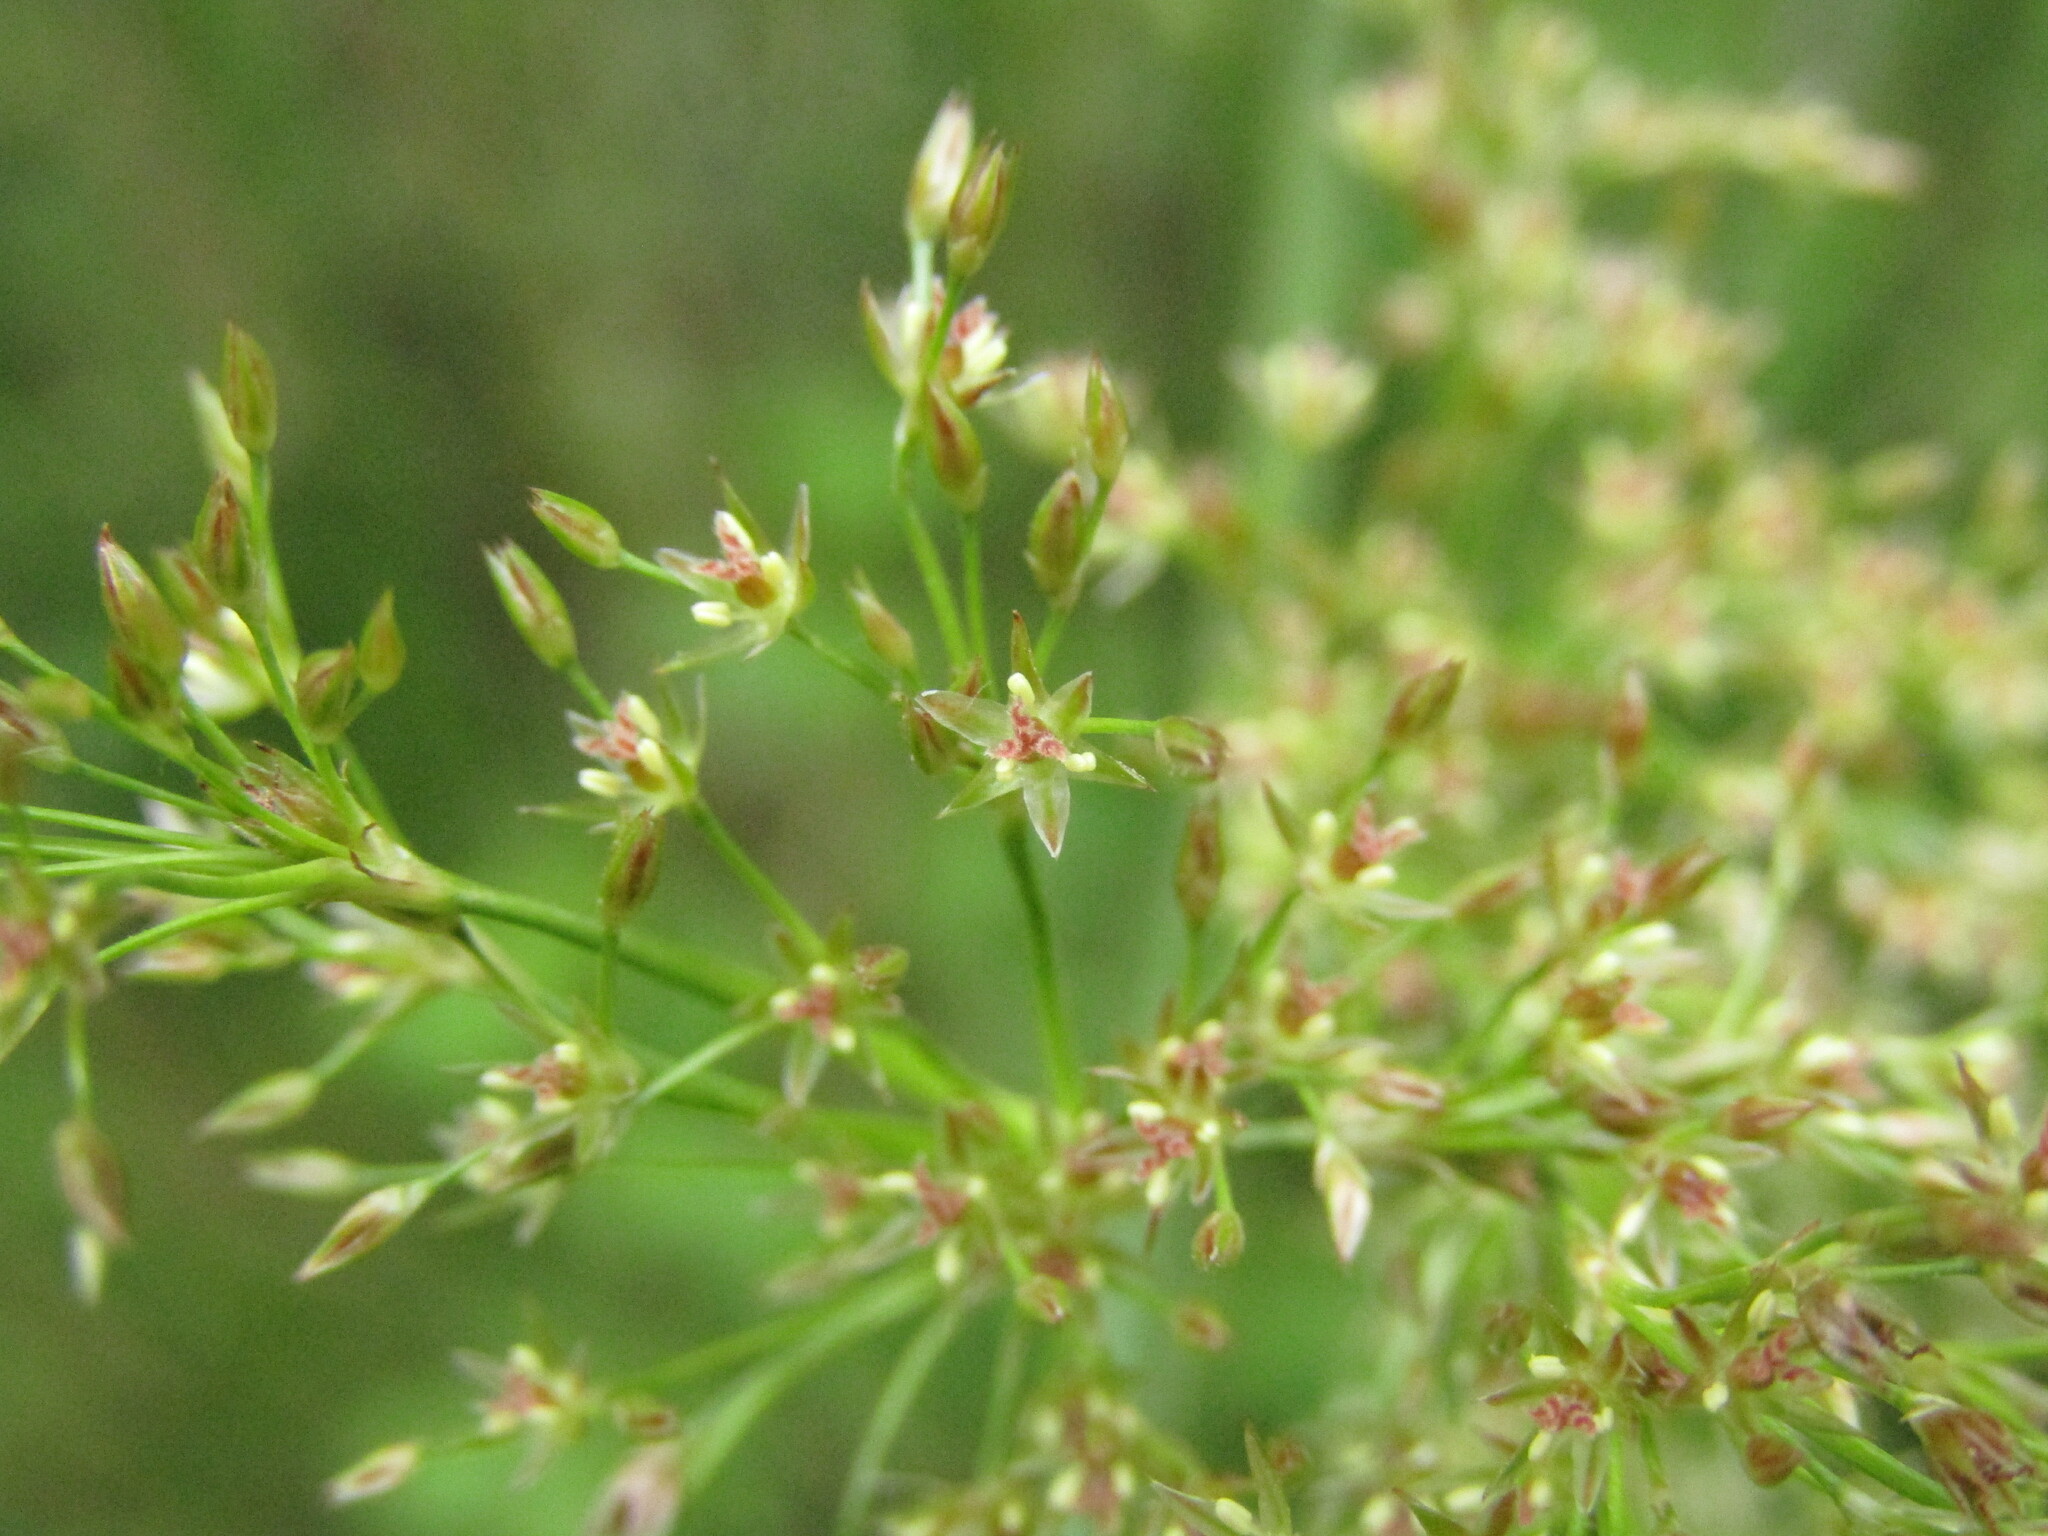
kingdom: Plantae
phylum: Tracheophyta
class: Liliopsida
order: Poales
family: Juncaceae
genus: Juncus
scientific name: Juncus effusus
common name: Soft rush
